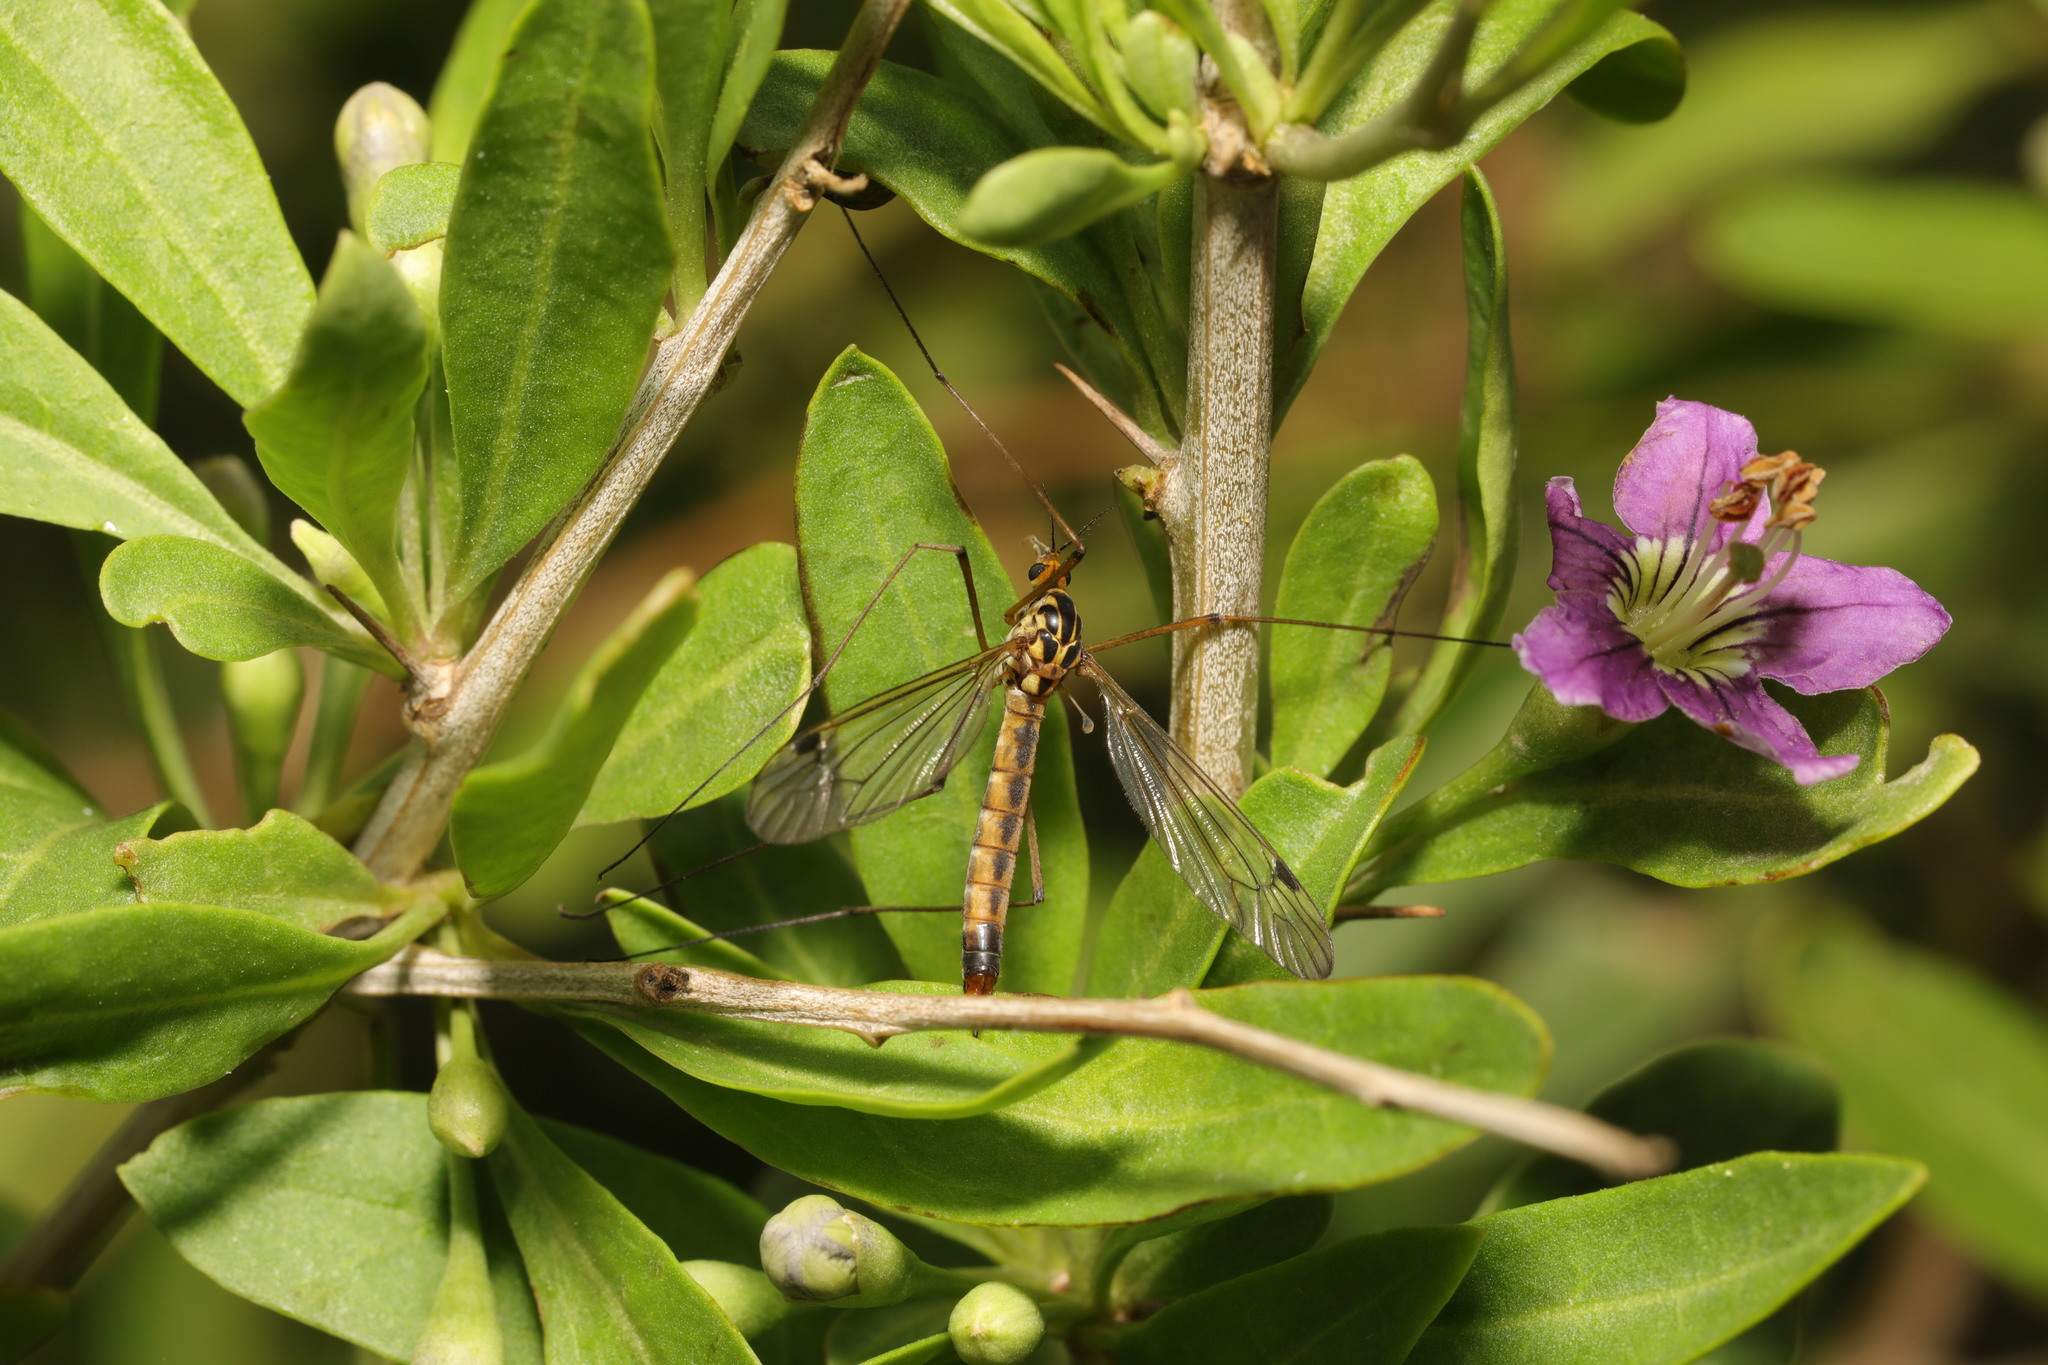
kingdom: Animalia
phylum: Arthropoda
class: Insecta
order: Diptera
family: Tipulidae
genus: Nephrotoma
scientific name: Nephrotoma guestfalica
